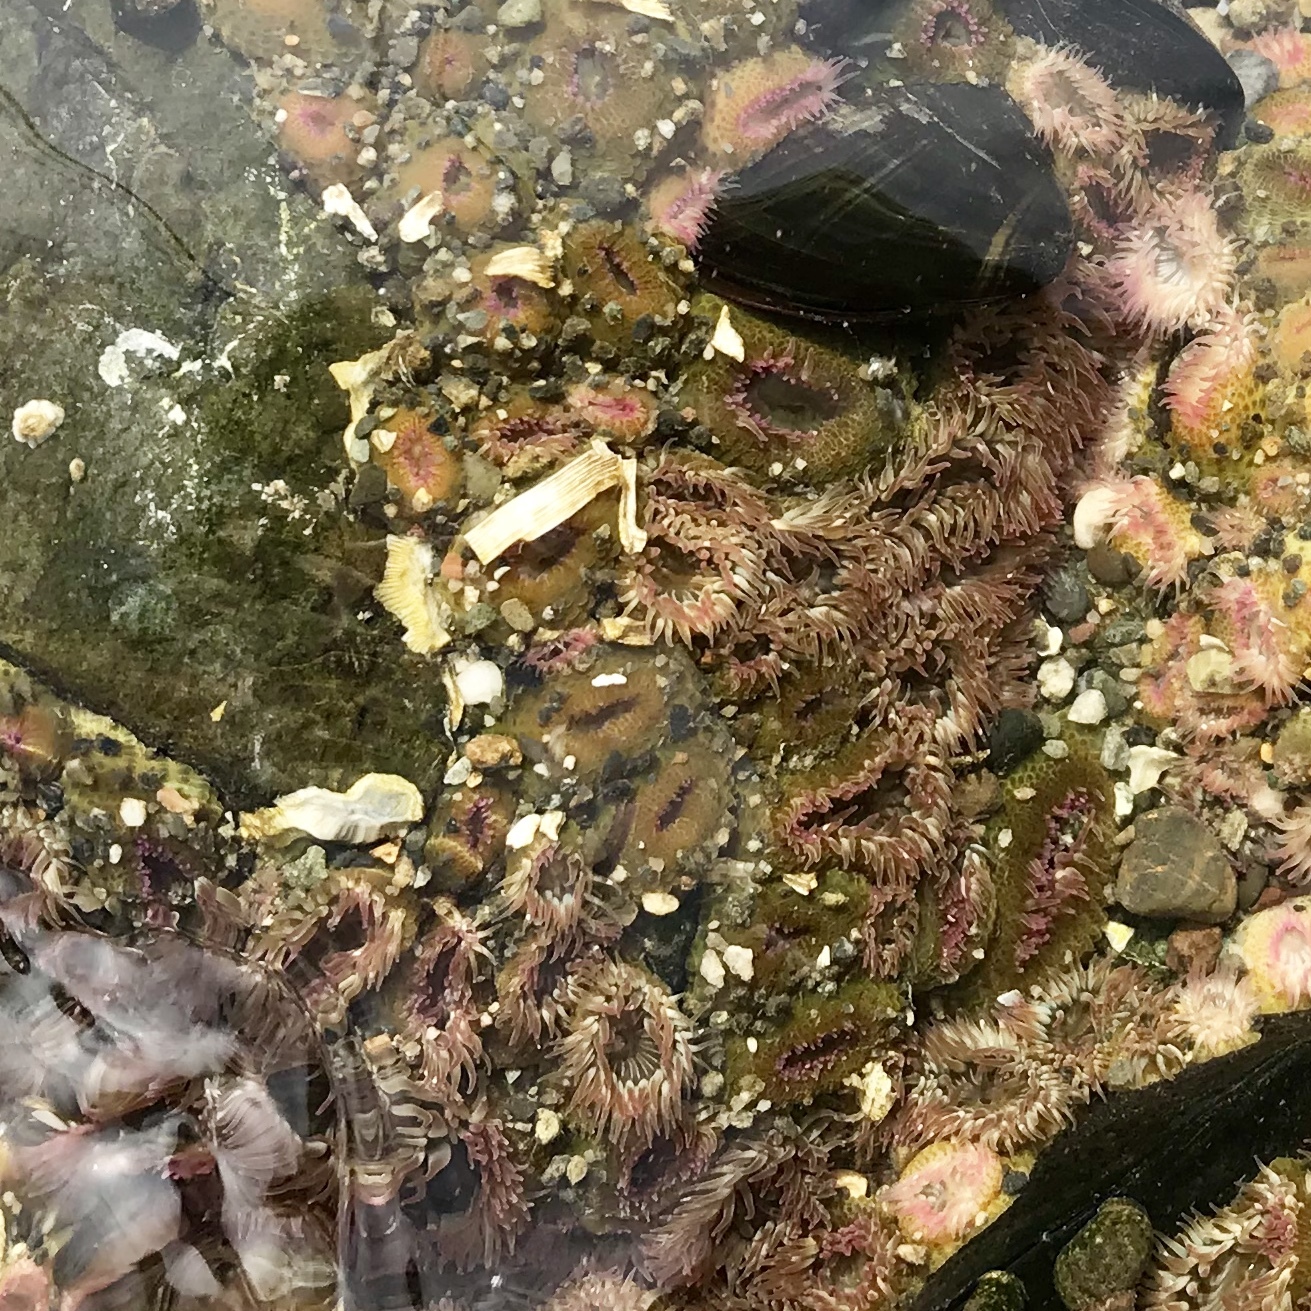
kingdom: Animalia
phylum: Cnidaria
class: Anthozoa
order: Actiniaria
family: Actiniidae
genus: Anthopleura
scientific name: Anthopleura elegantissima
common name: Clonal anemone
